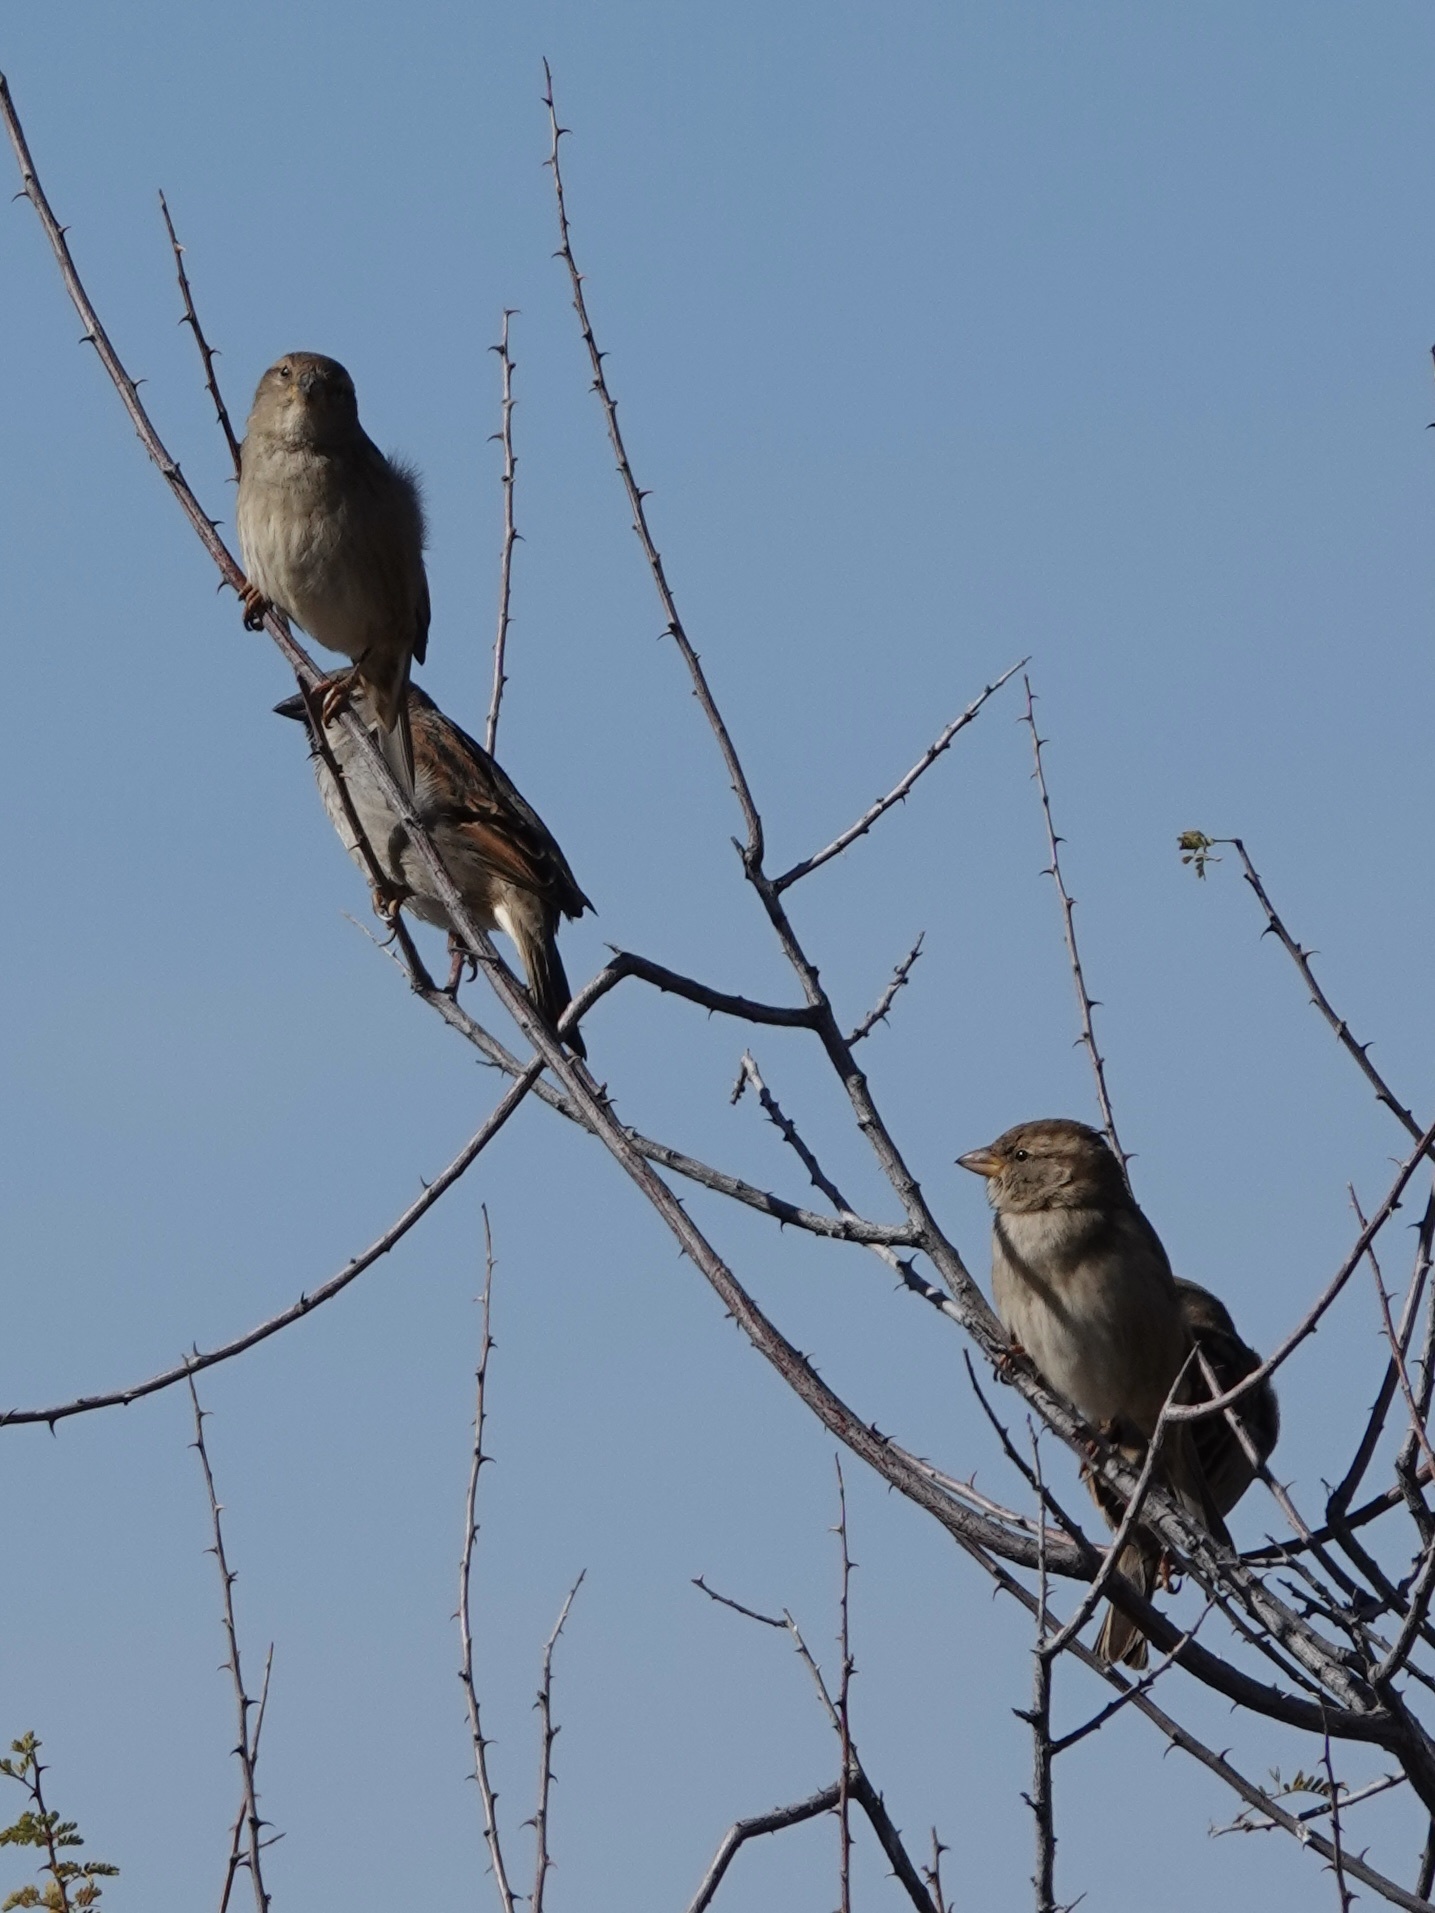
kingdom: Animalia
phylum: Chordata
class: Aves
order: Passeriformes
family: Passeridae
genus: Passer
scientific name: Passer domesticus
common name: House sparrow
